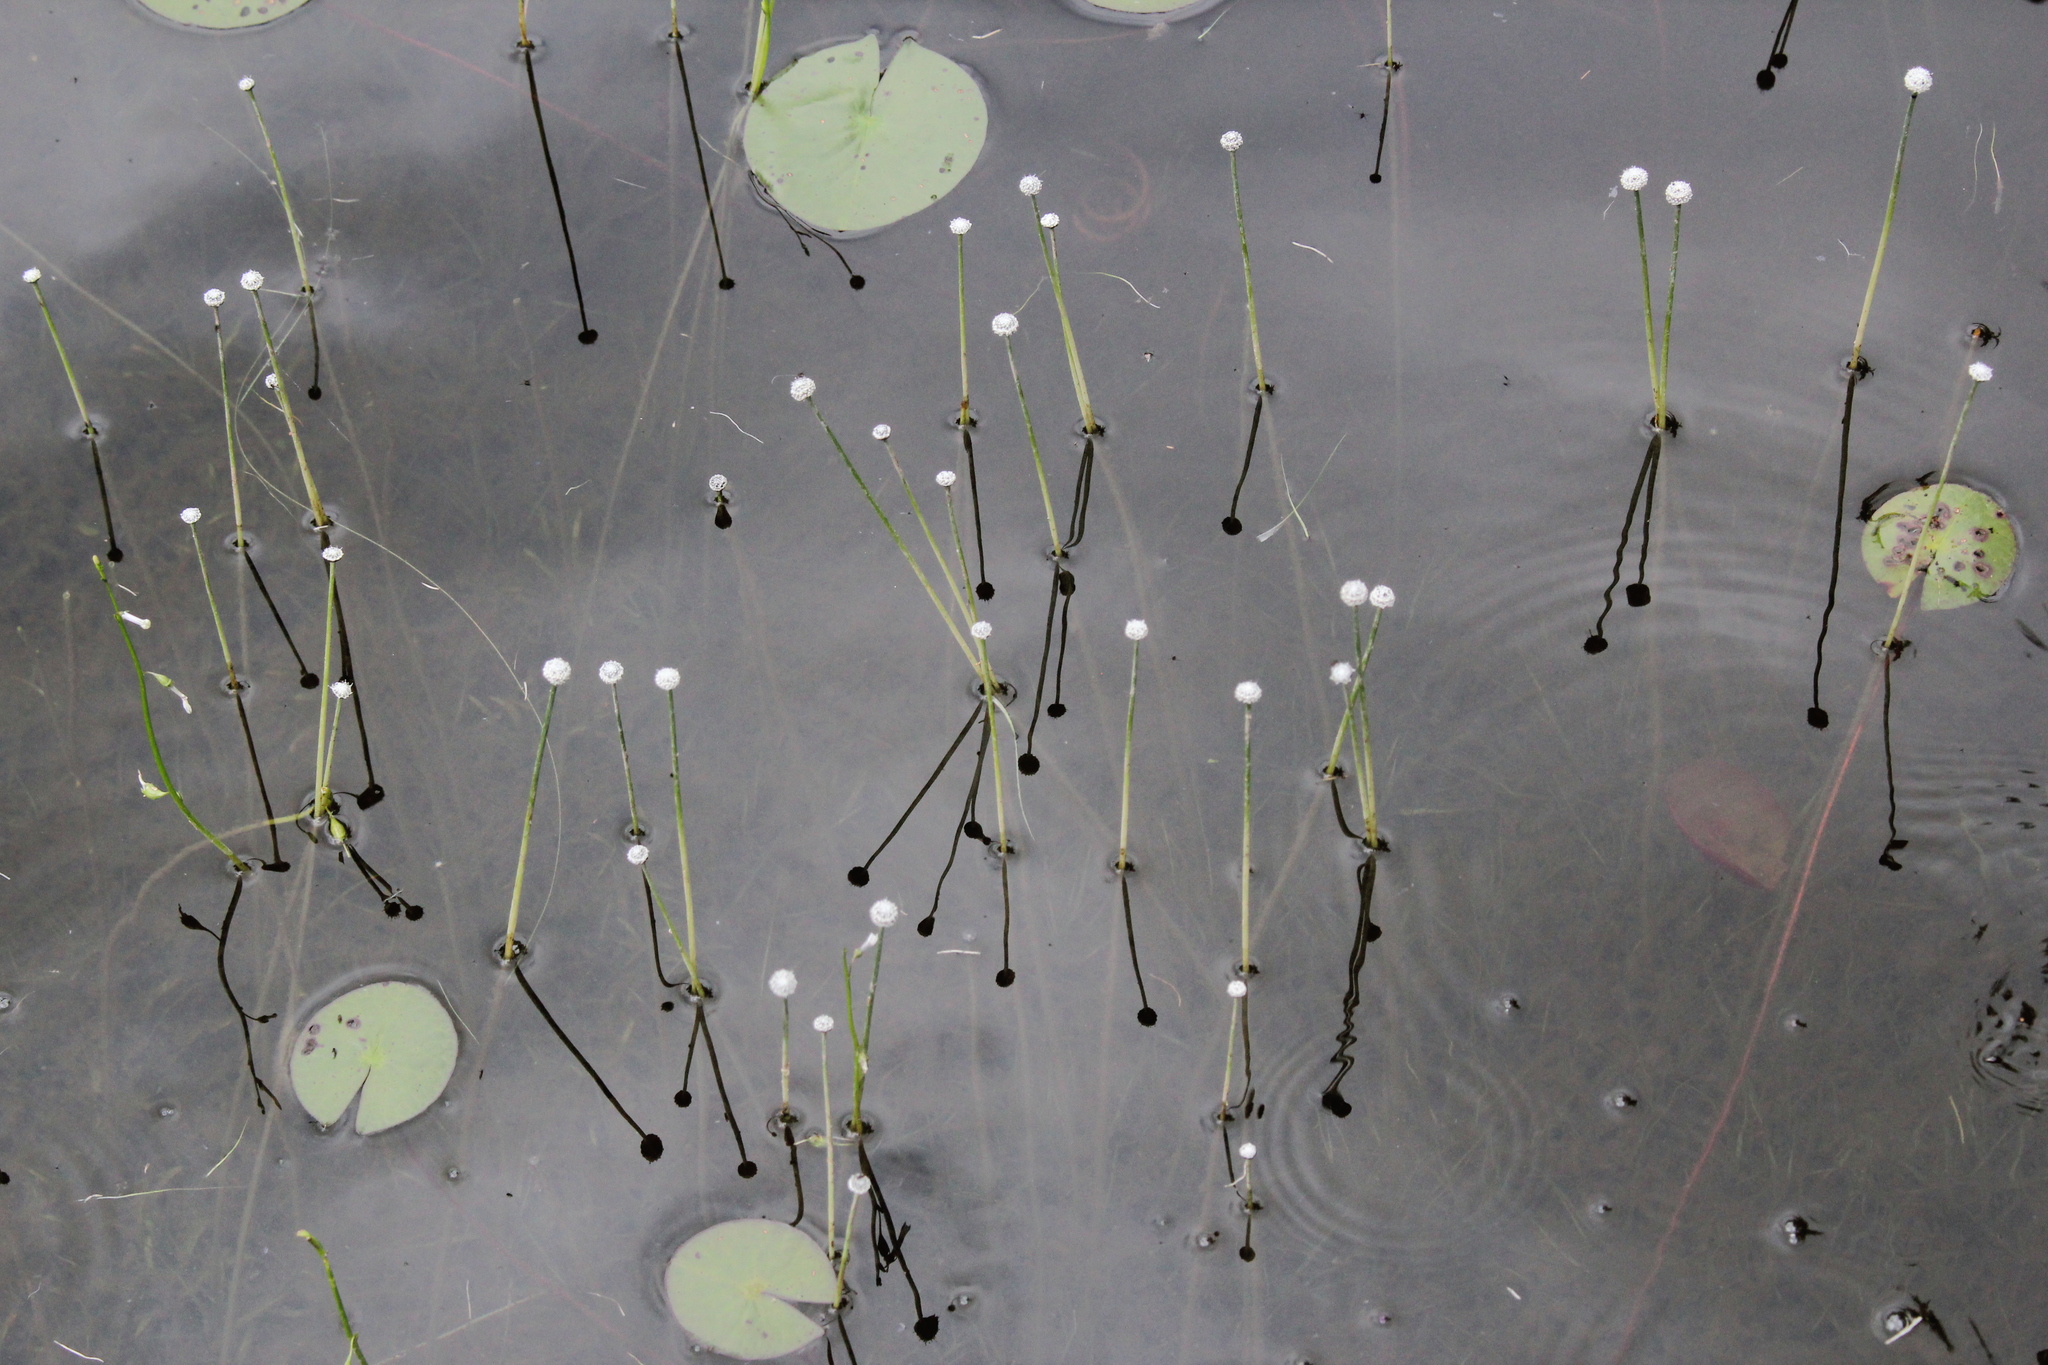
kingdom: Plantae
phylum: Tracheophyta
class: Liliopsida
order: Poales
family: Eriocaulaceae
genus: Eriocaulon
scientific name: Eriocaulon aquaticum
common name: Pipewort
